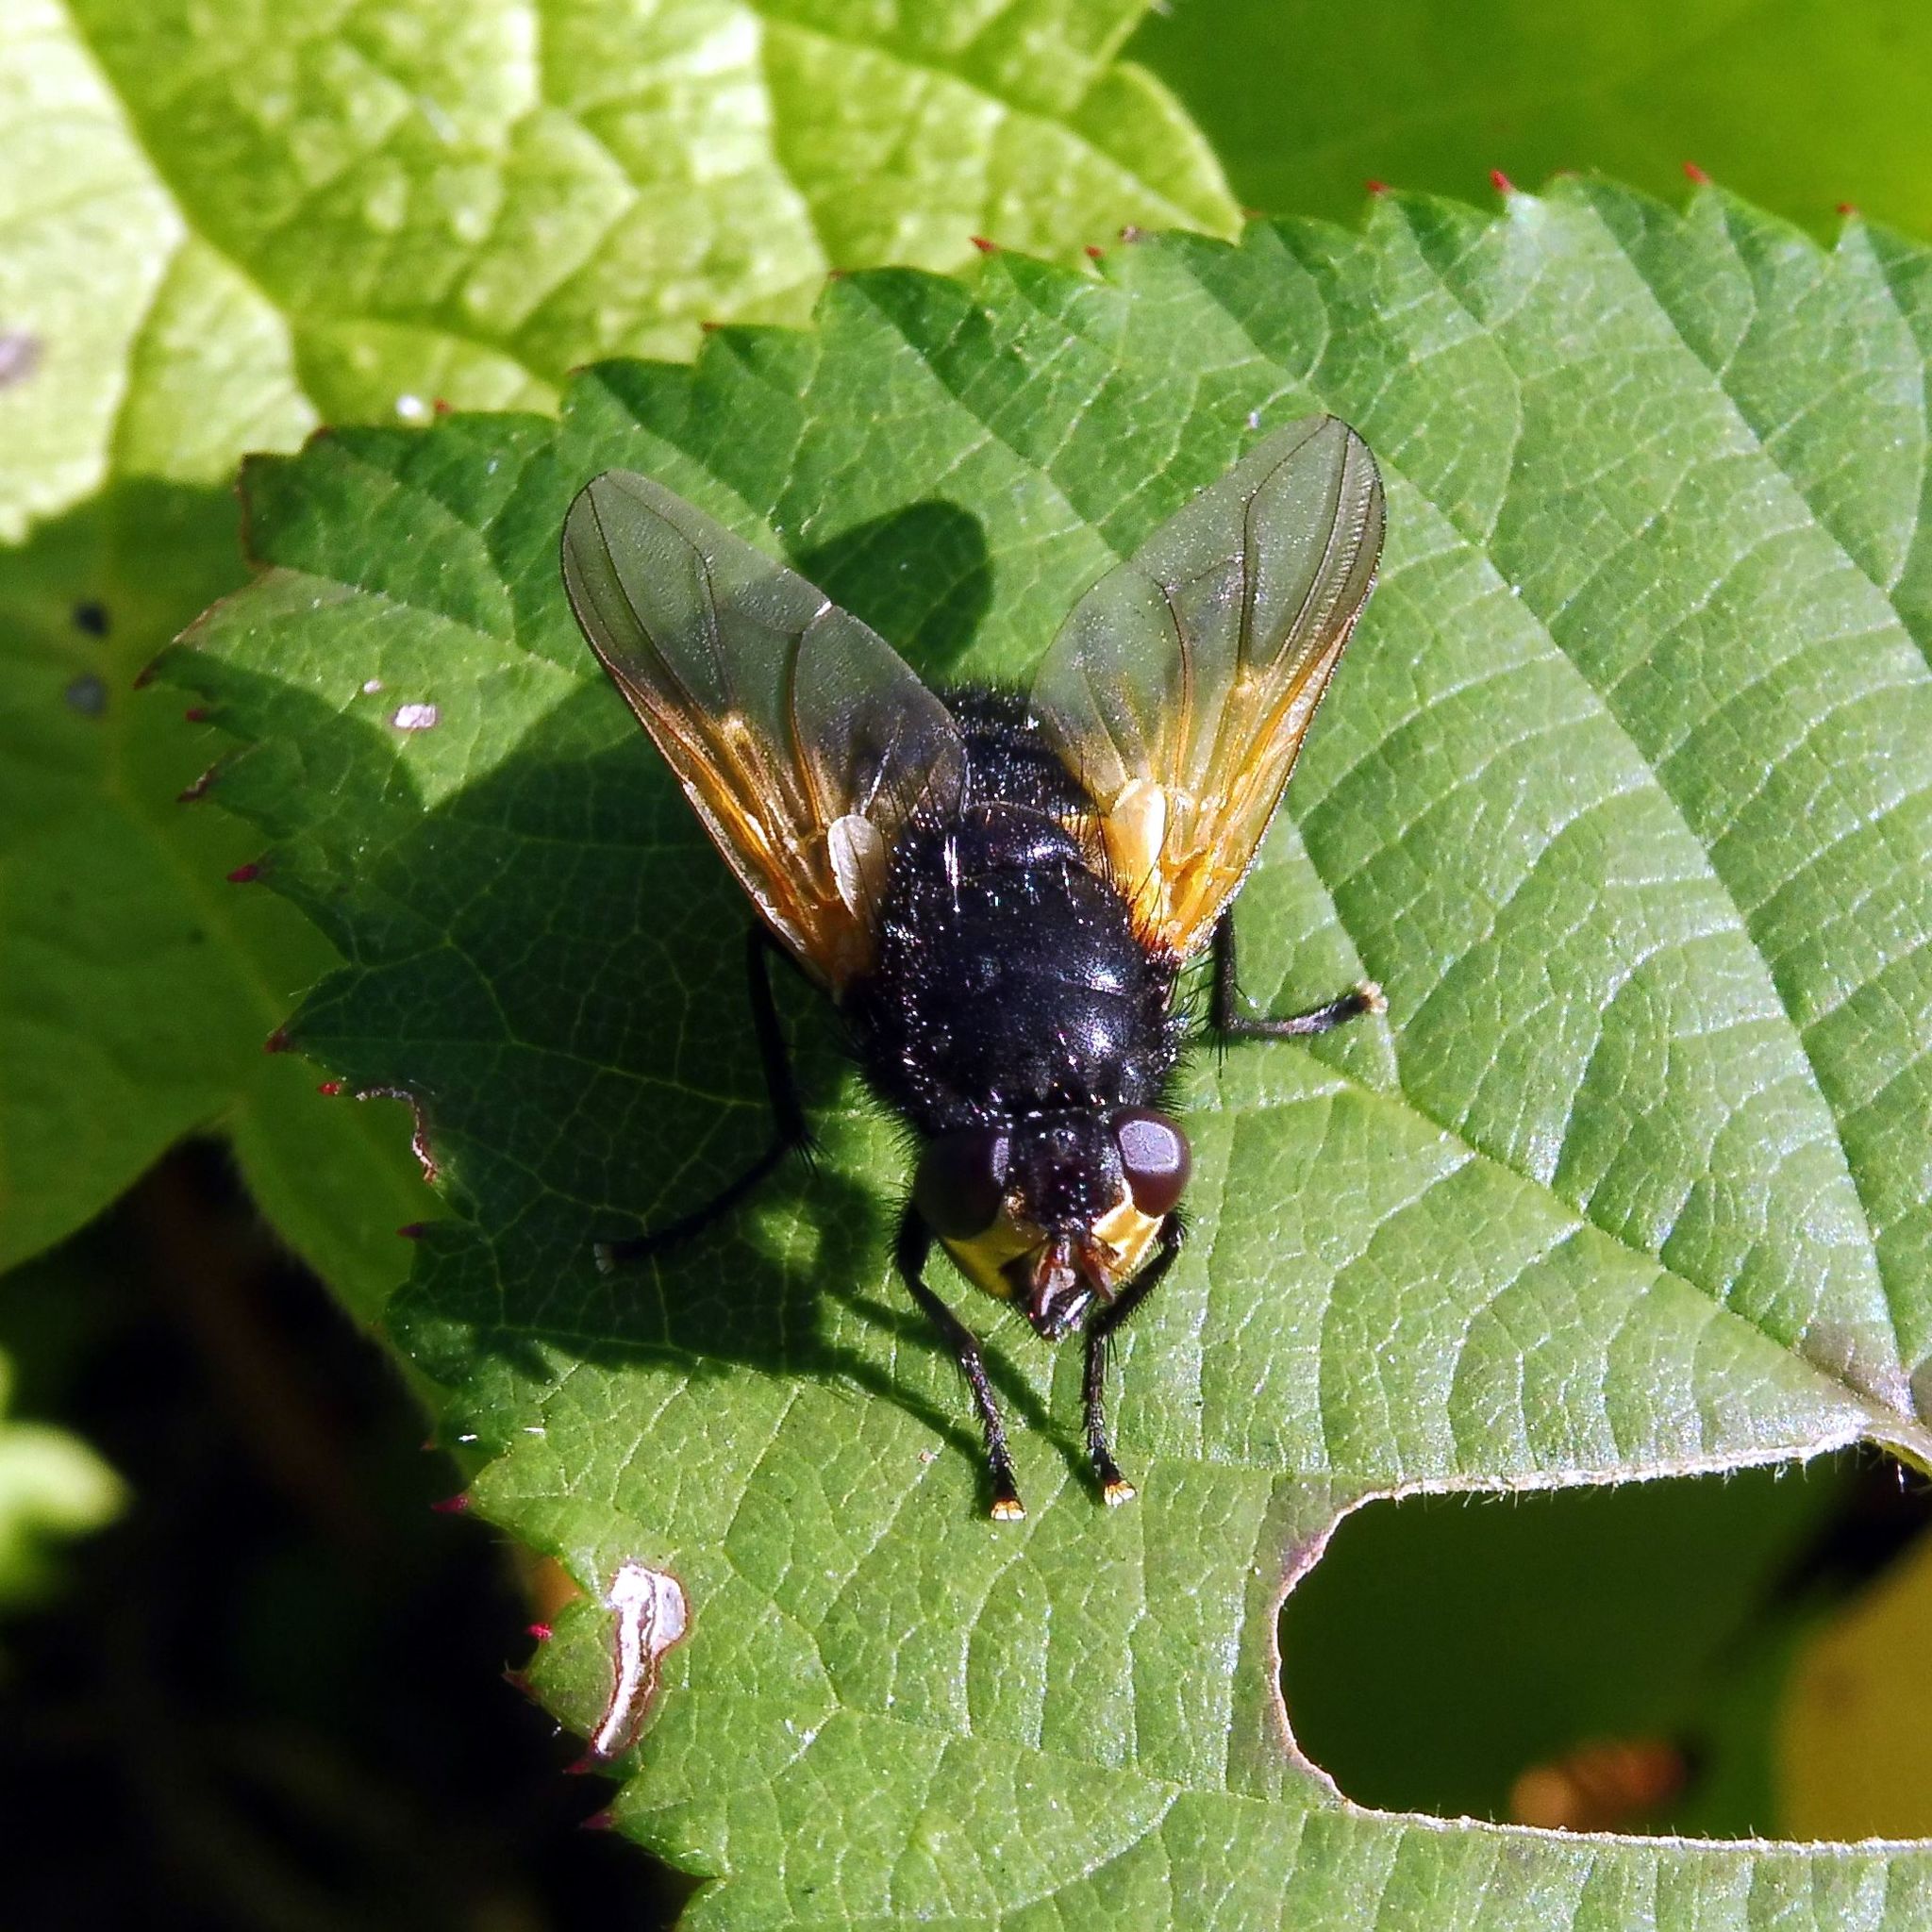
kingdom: Animalia
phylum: Arthropoda
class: Insecta
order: Diptera
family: Muscidae
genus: Mesembrina
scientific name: Mesembrina meridiana
